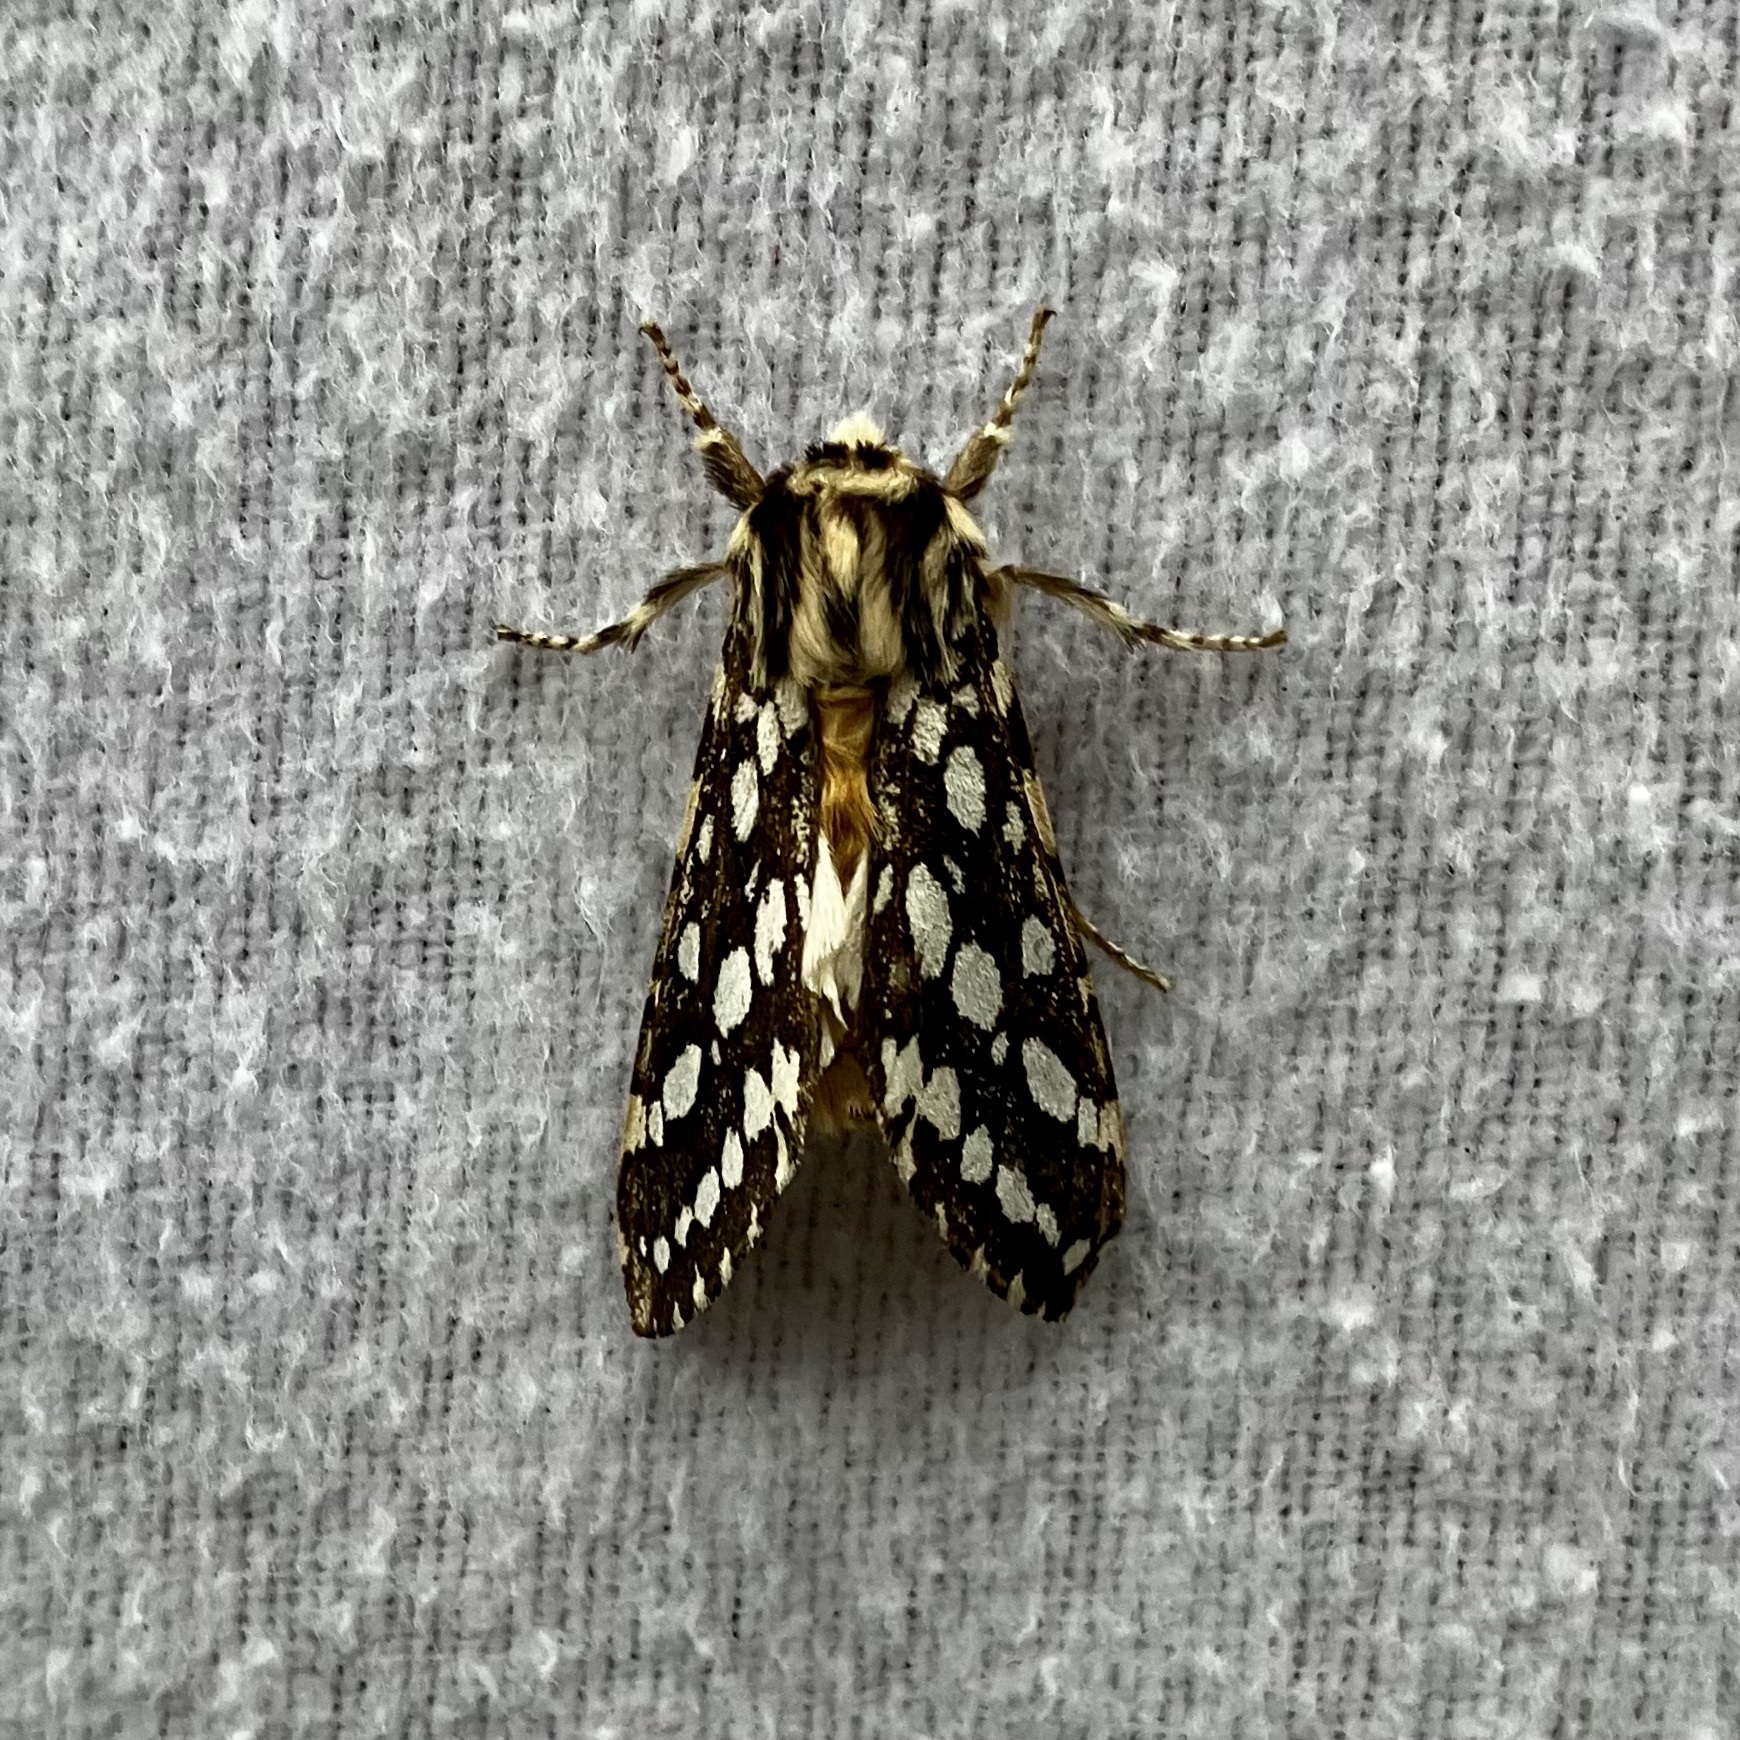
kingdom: Animalia
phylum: Arthropoda
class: Insecta
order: Lepidoptera
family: Erebidae
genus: Lophocampa
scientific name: Lophocampa argentata
